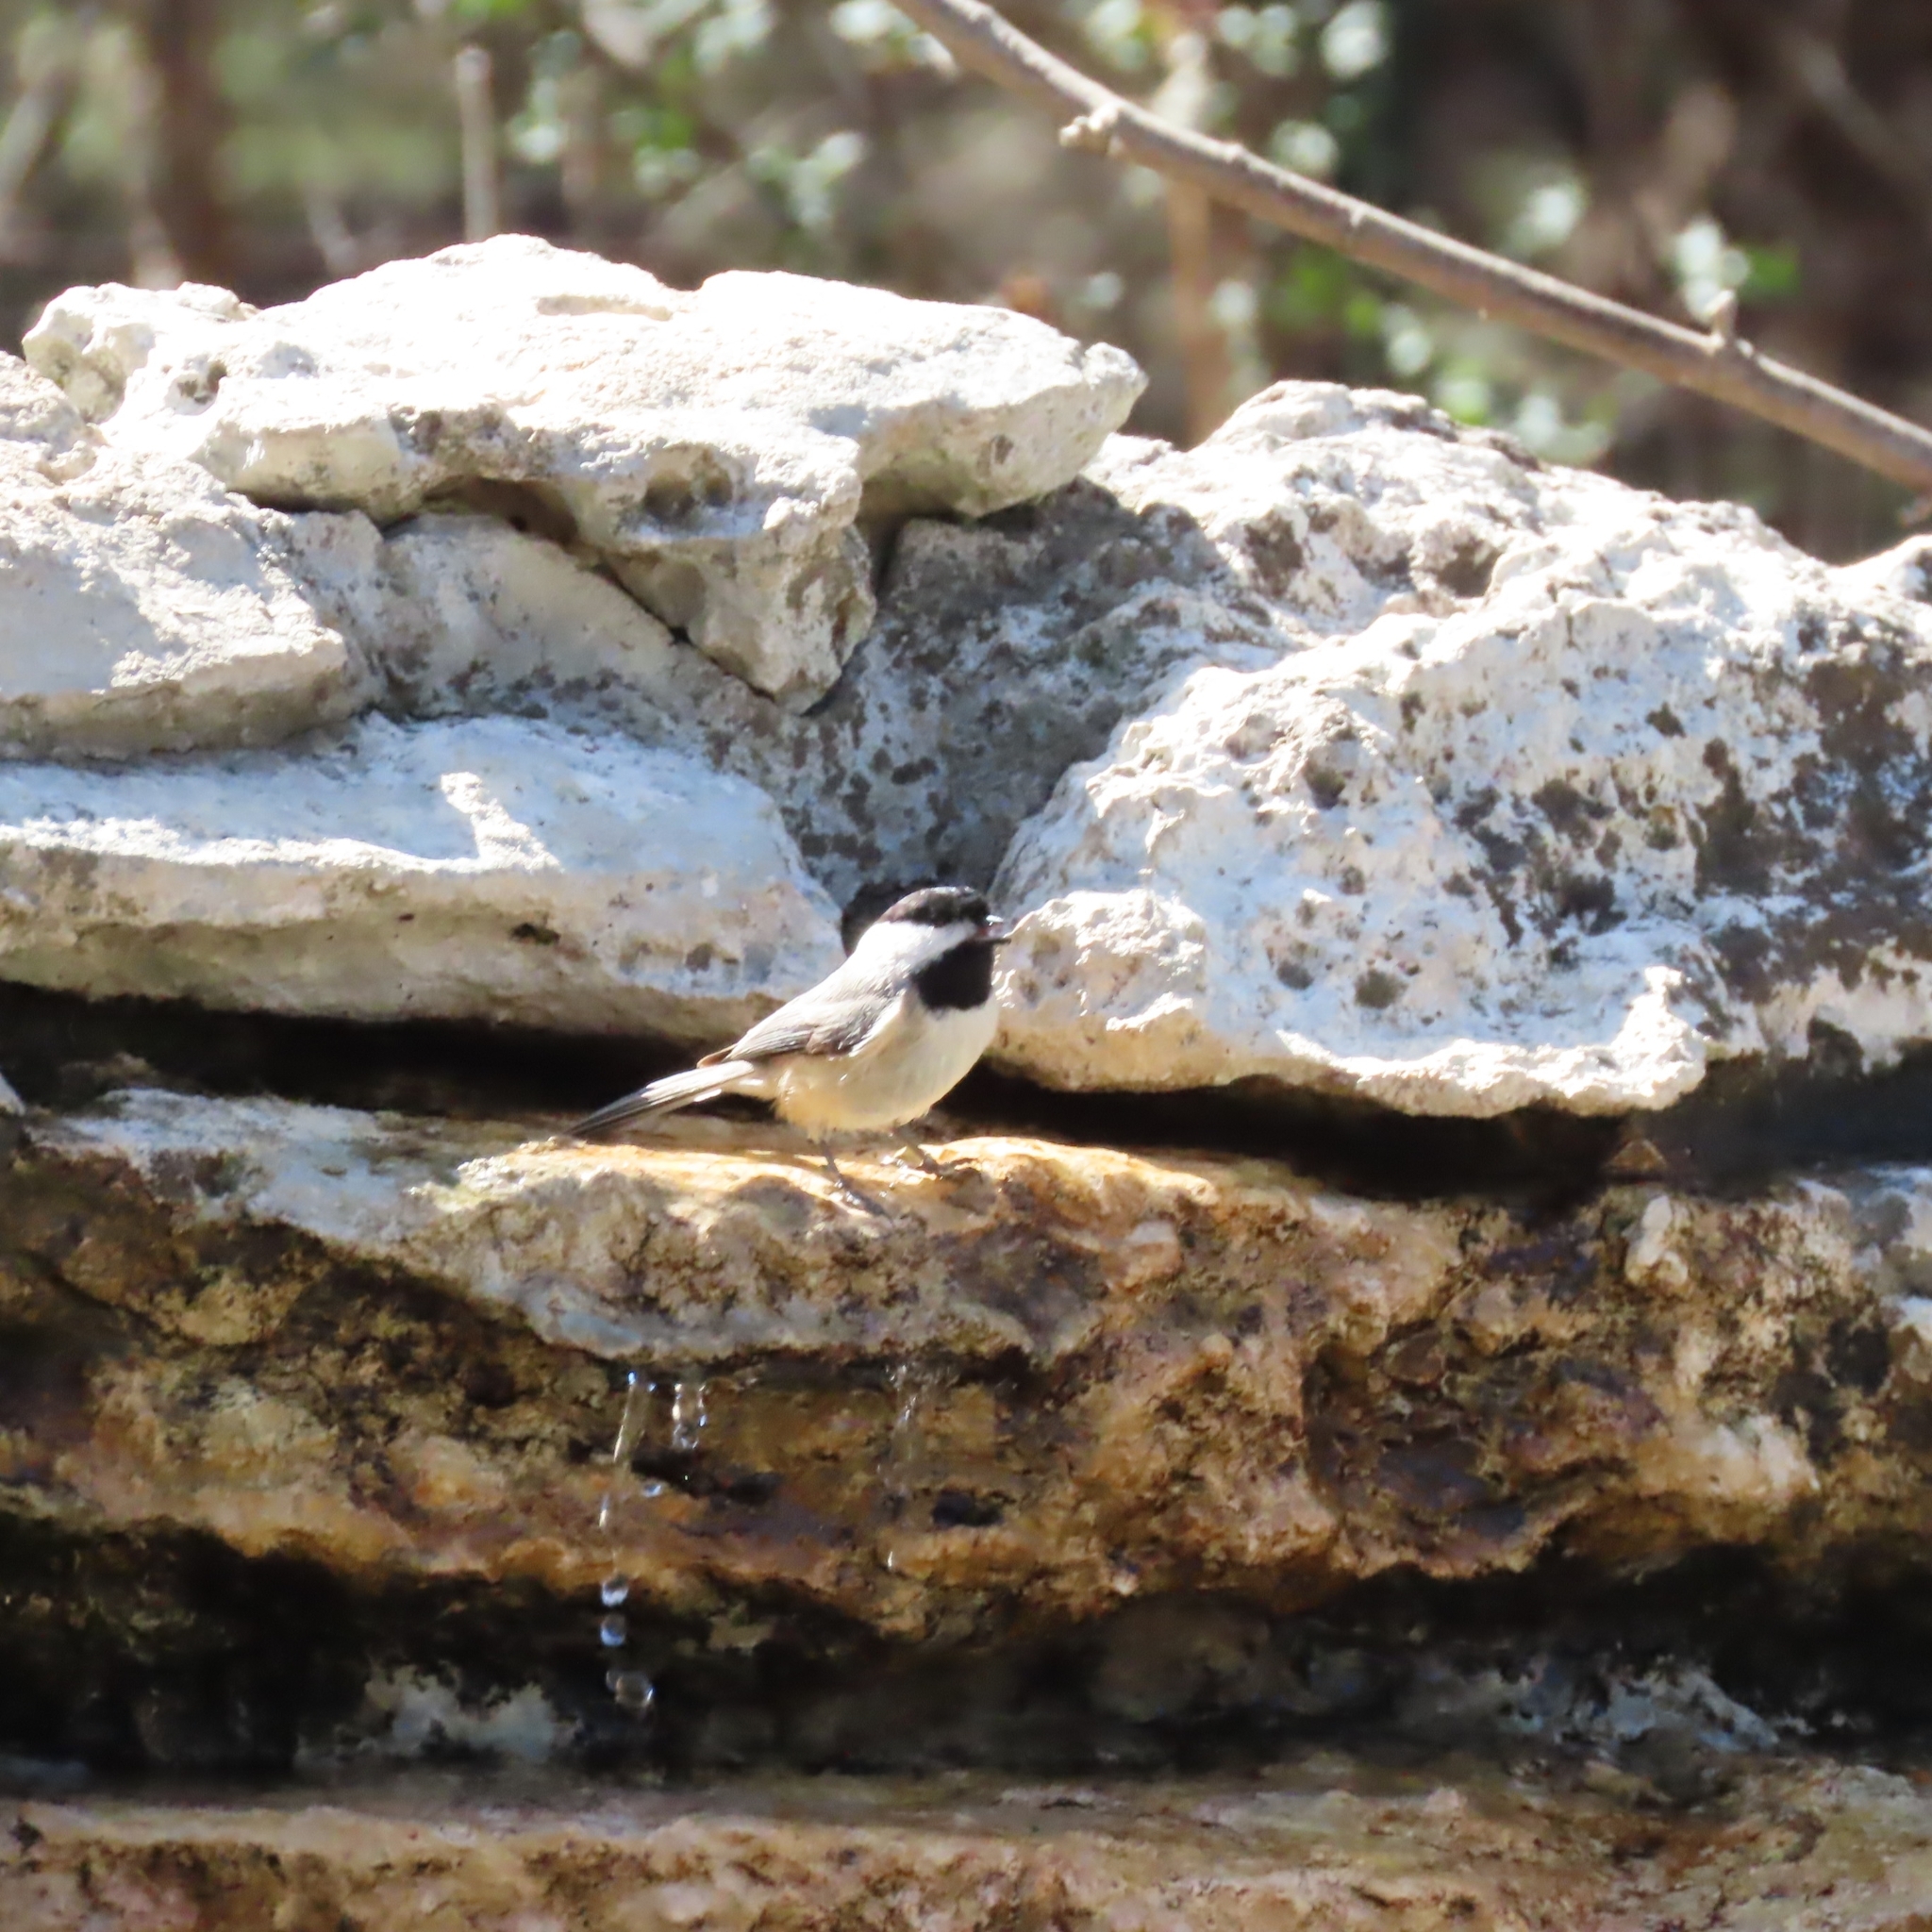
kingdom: Animalia
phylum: Chordata
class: Aves
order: Passeriformes
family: Paridae
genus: Poecile
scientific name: Poecile carolinensis
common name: Carolina chickadee
